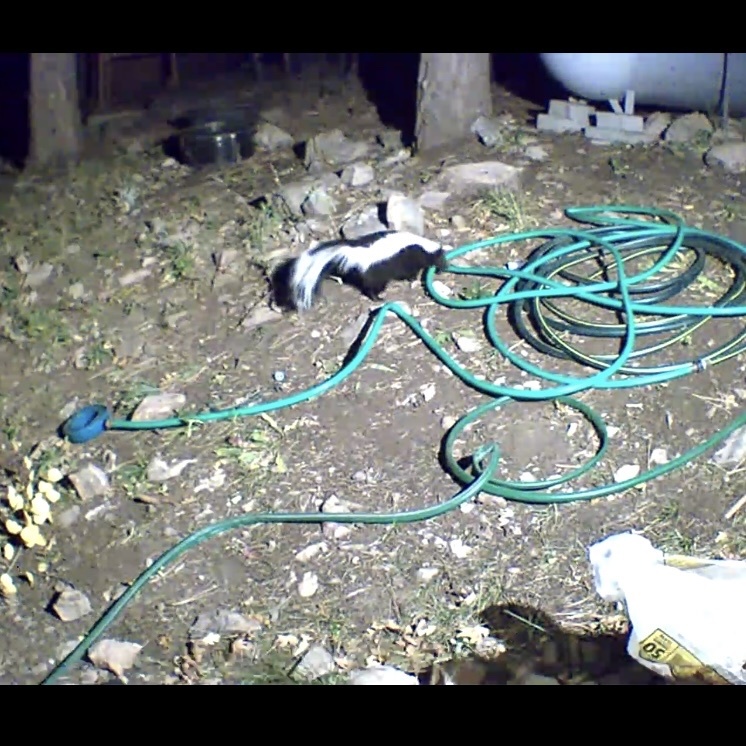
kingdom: Animalia
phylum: Chordata
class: Mammalia
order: Carnivora
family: Mephitidae
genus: Mephitis
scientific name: Mephitis mephitis
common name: Striped skunk
